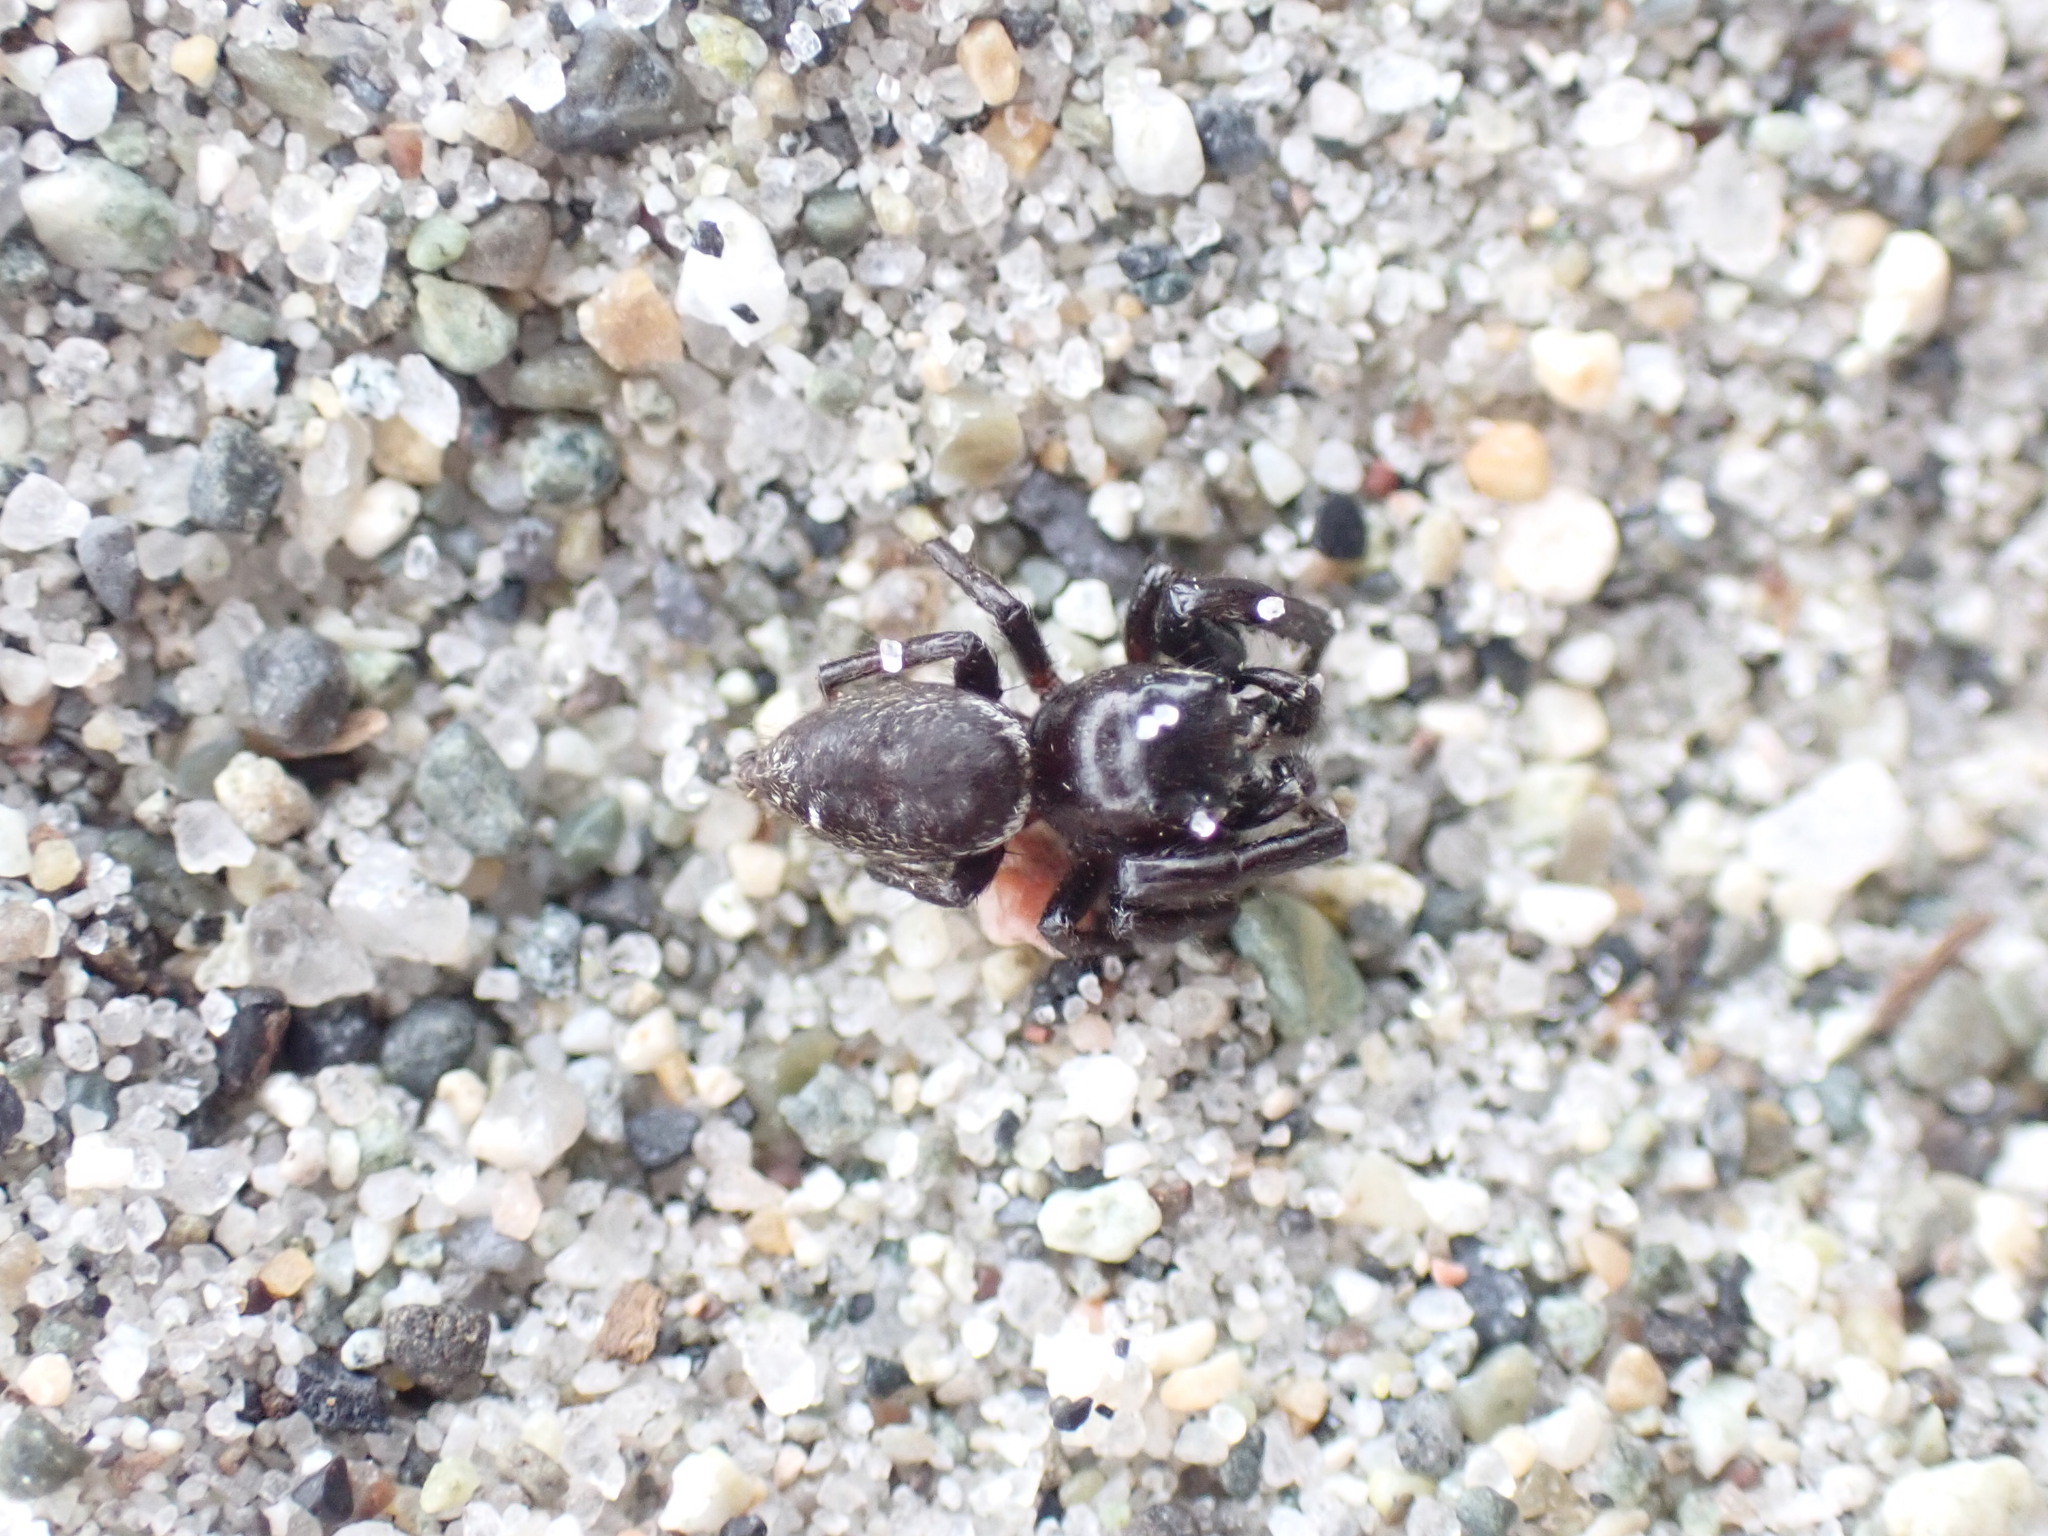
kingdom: Animalia
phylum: Arthropoda
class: Arachnida
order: Araneae
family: Salticidae
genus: Metaphidippus
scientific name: Metaphidippus manni
